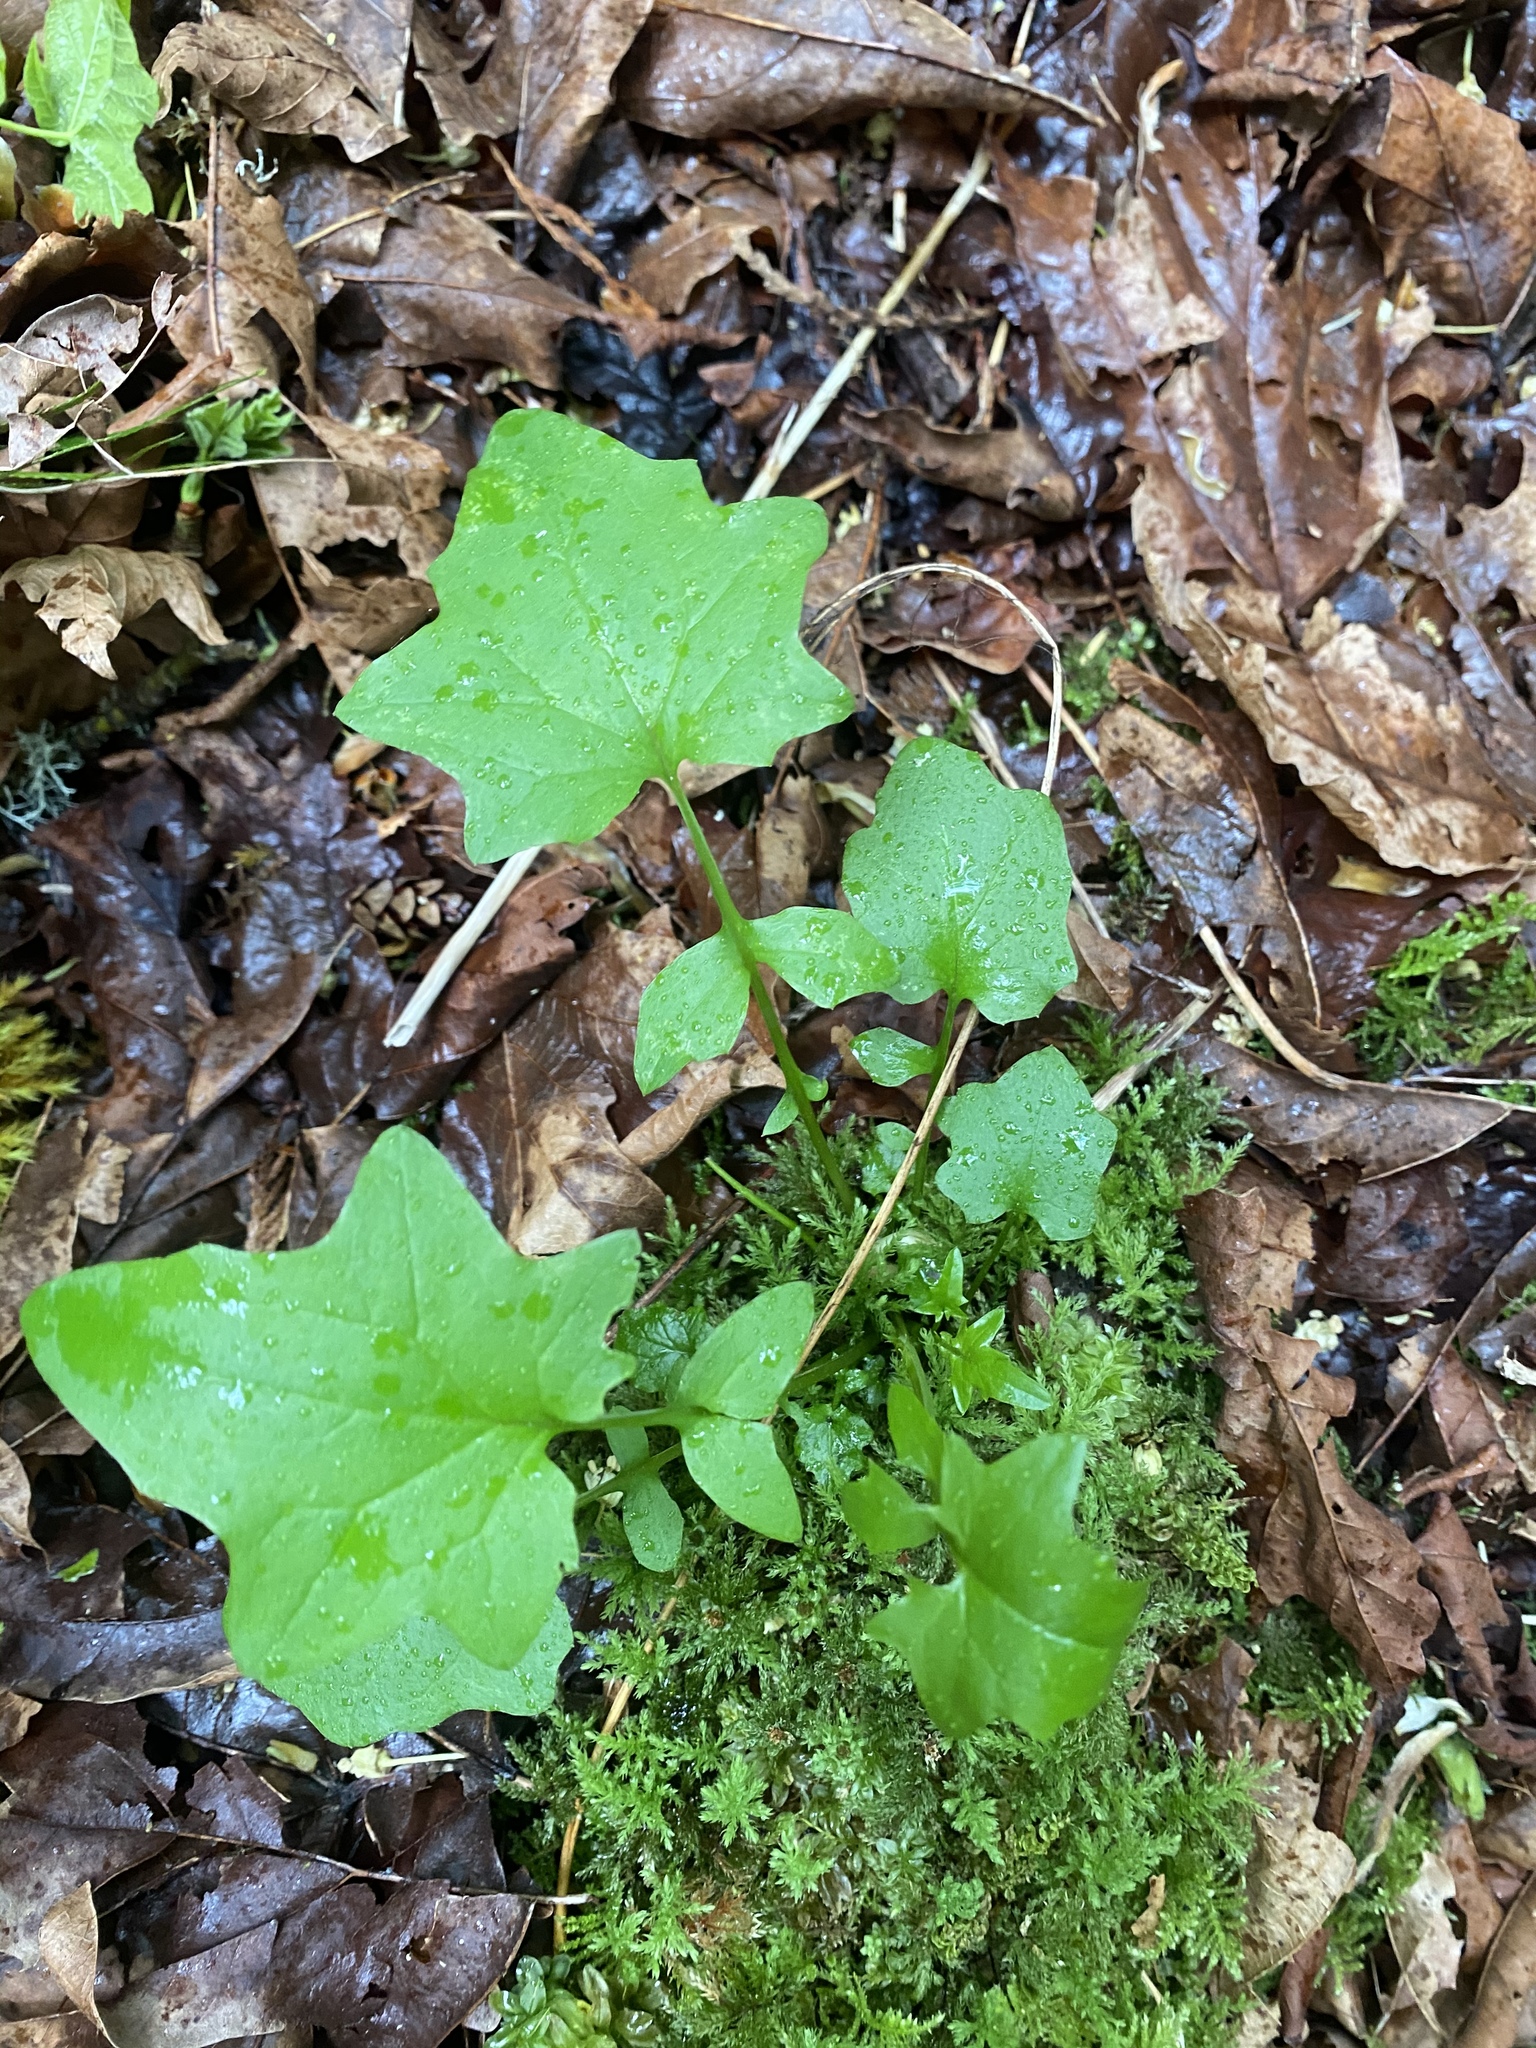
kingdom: Plantae
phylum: Tracheophyta
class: Magnoliopsida
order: Asterales
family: Asteraceae
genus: Mycelis
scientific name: Mycelis muralis
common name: Wall lettuce
